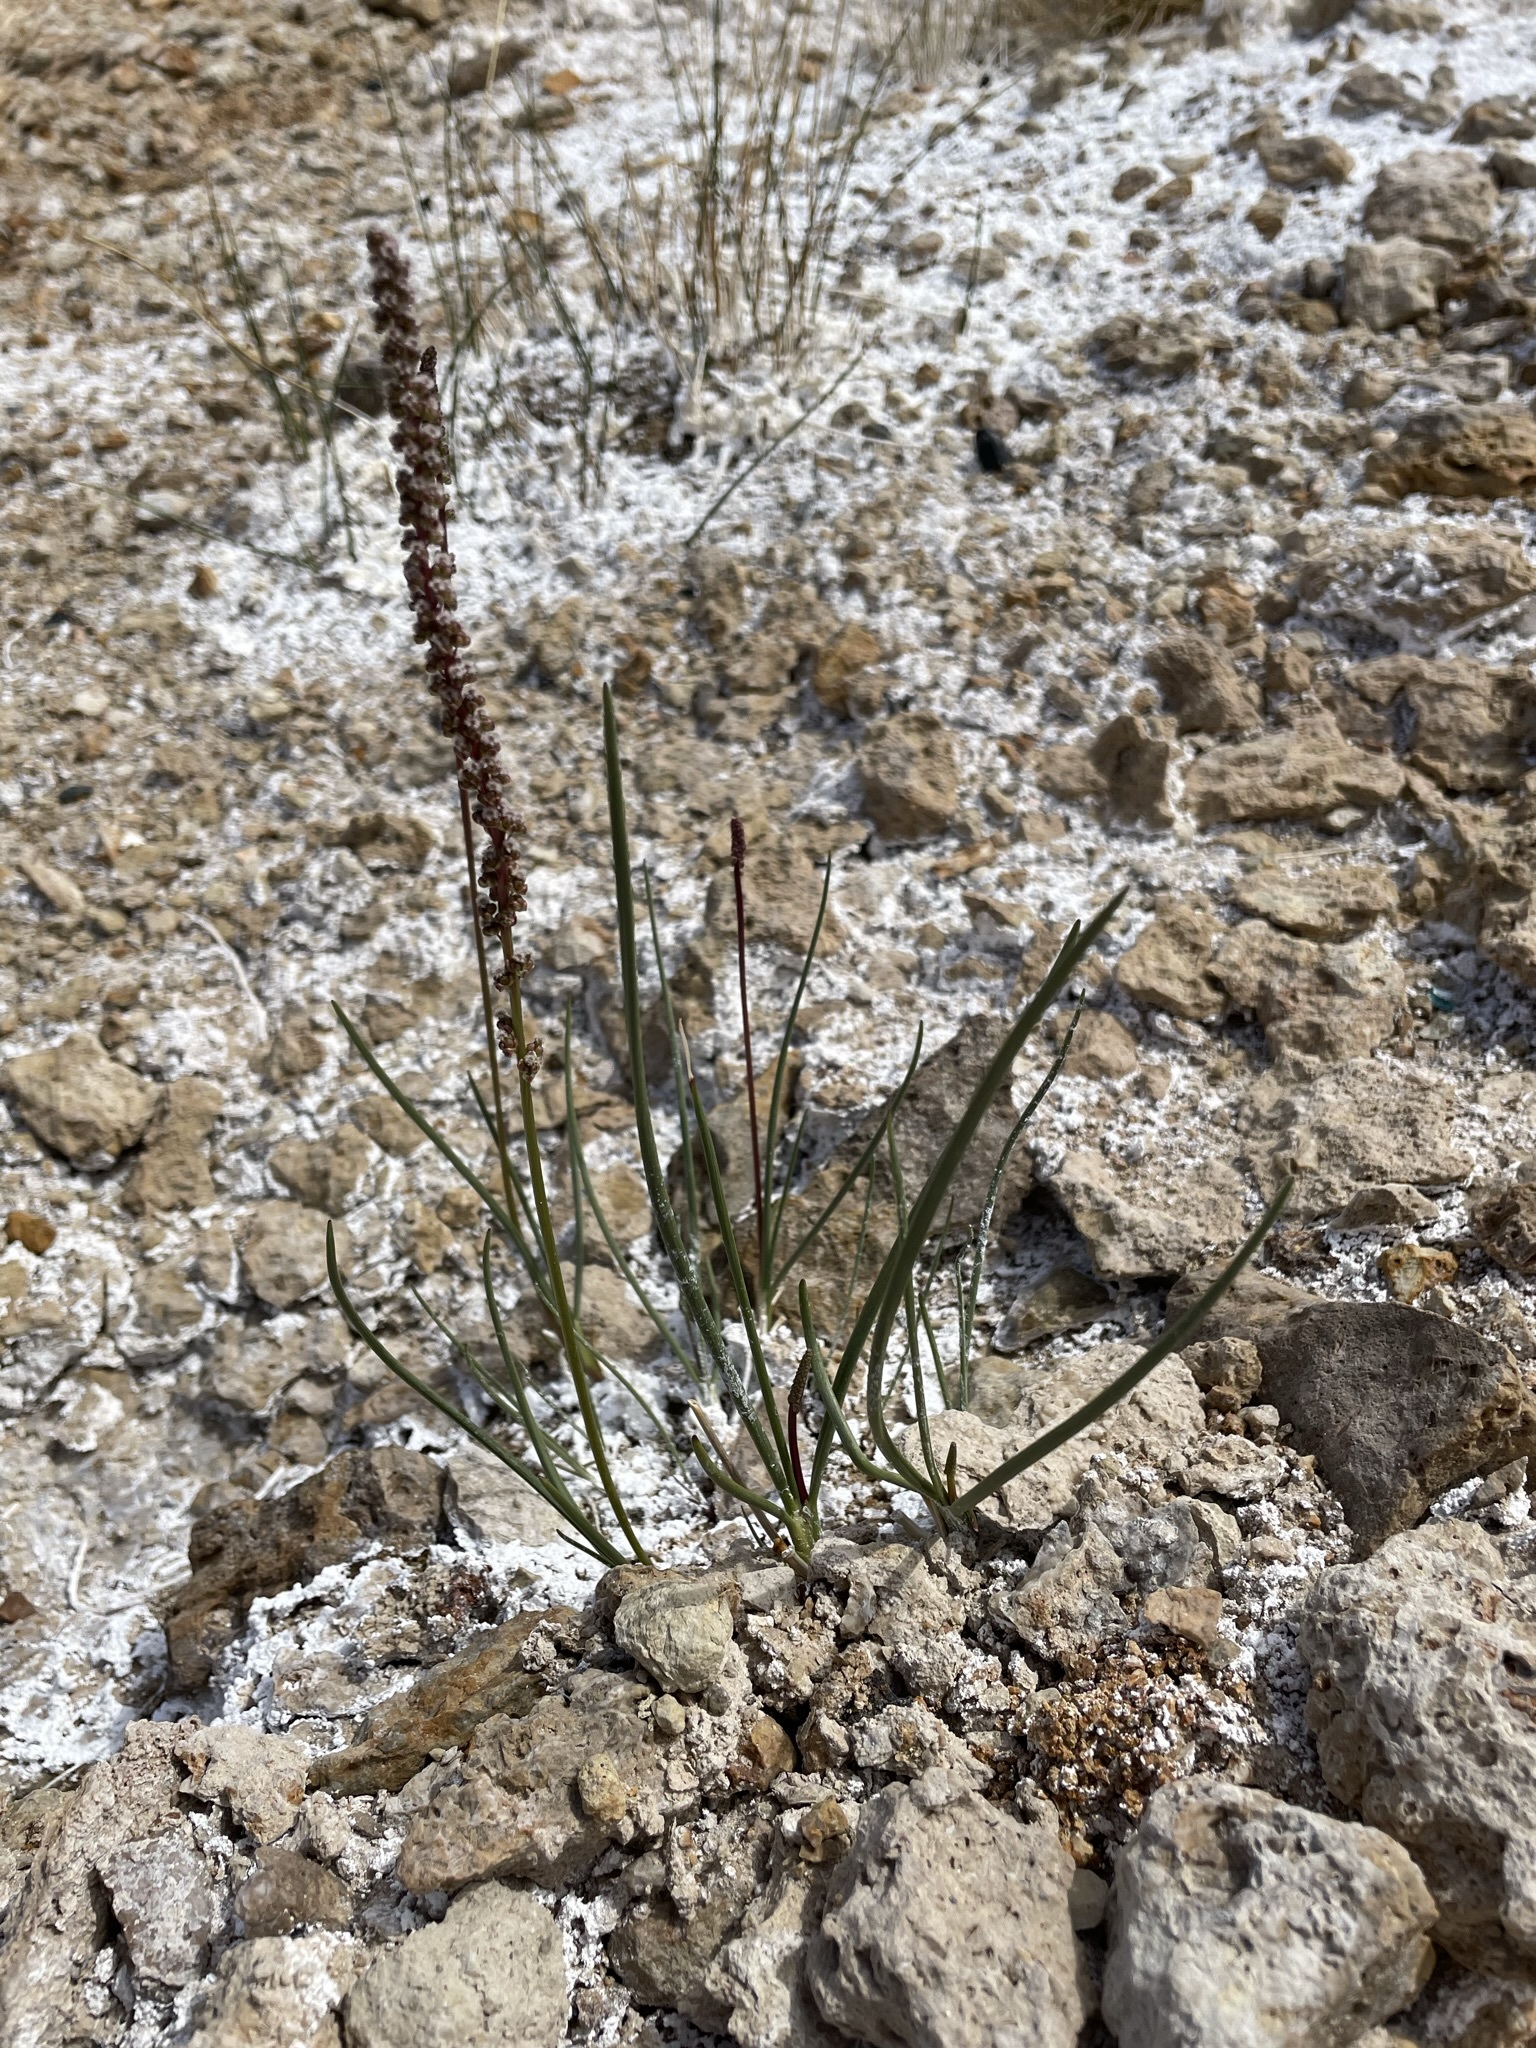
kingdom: Plantae
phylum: Tracheophyta
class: Liliopsida
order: Alismatales
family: Juncaginaceae
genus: Triglochin
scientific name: Triglochin maritima
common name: Sea arrowgrass
